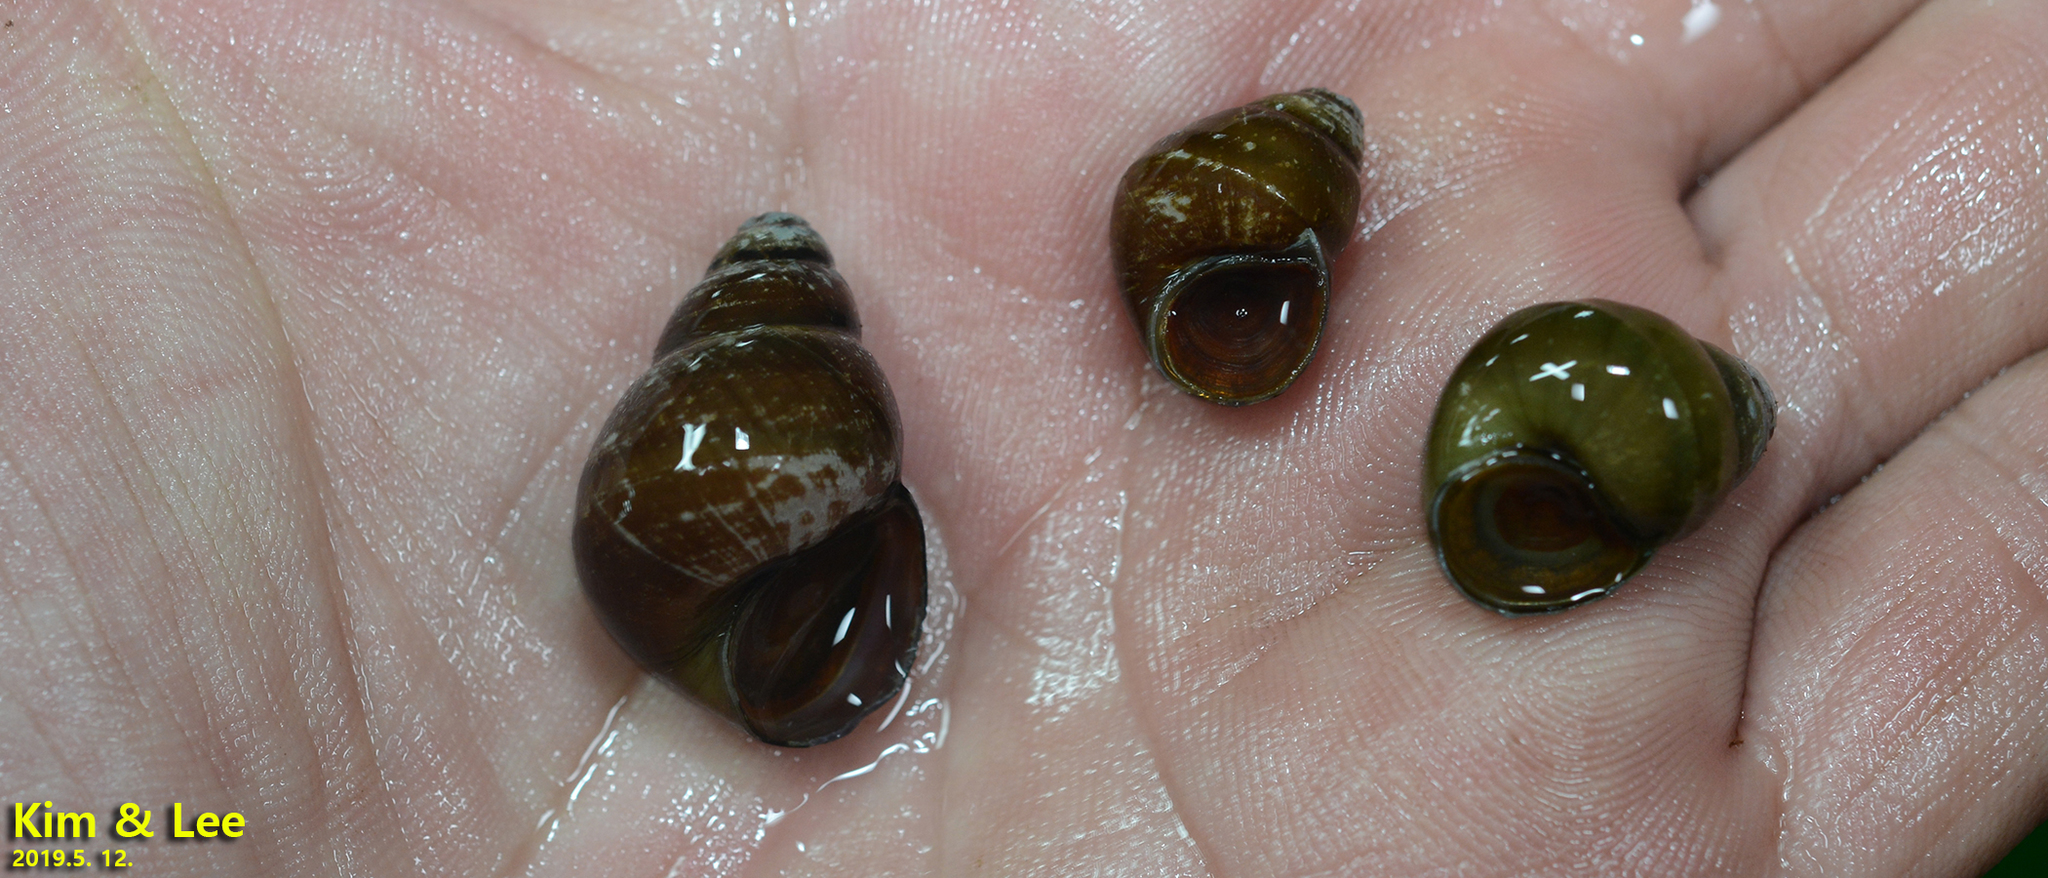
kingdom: Animalia
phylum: Mollusca
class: Gastropoda
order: Architaenioglossa
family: Viviparidae
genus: Sinotaia
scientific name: Sinotaia quadrata
